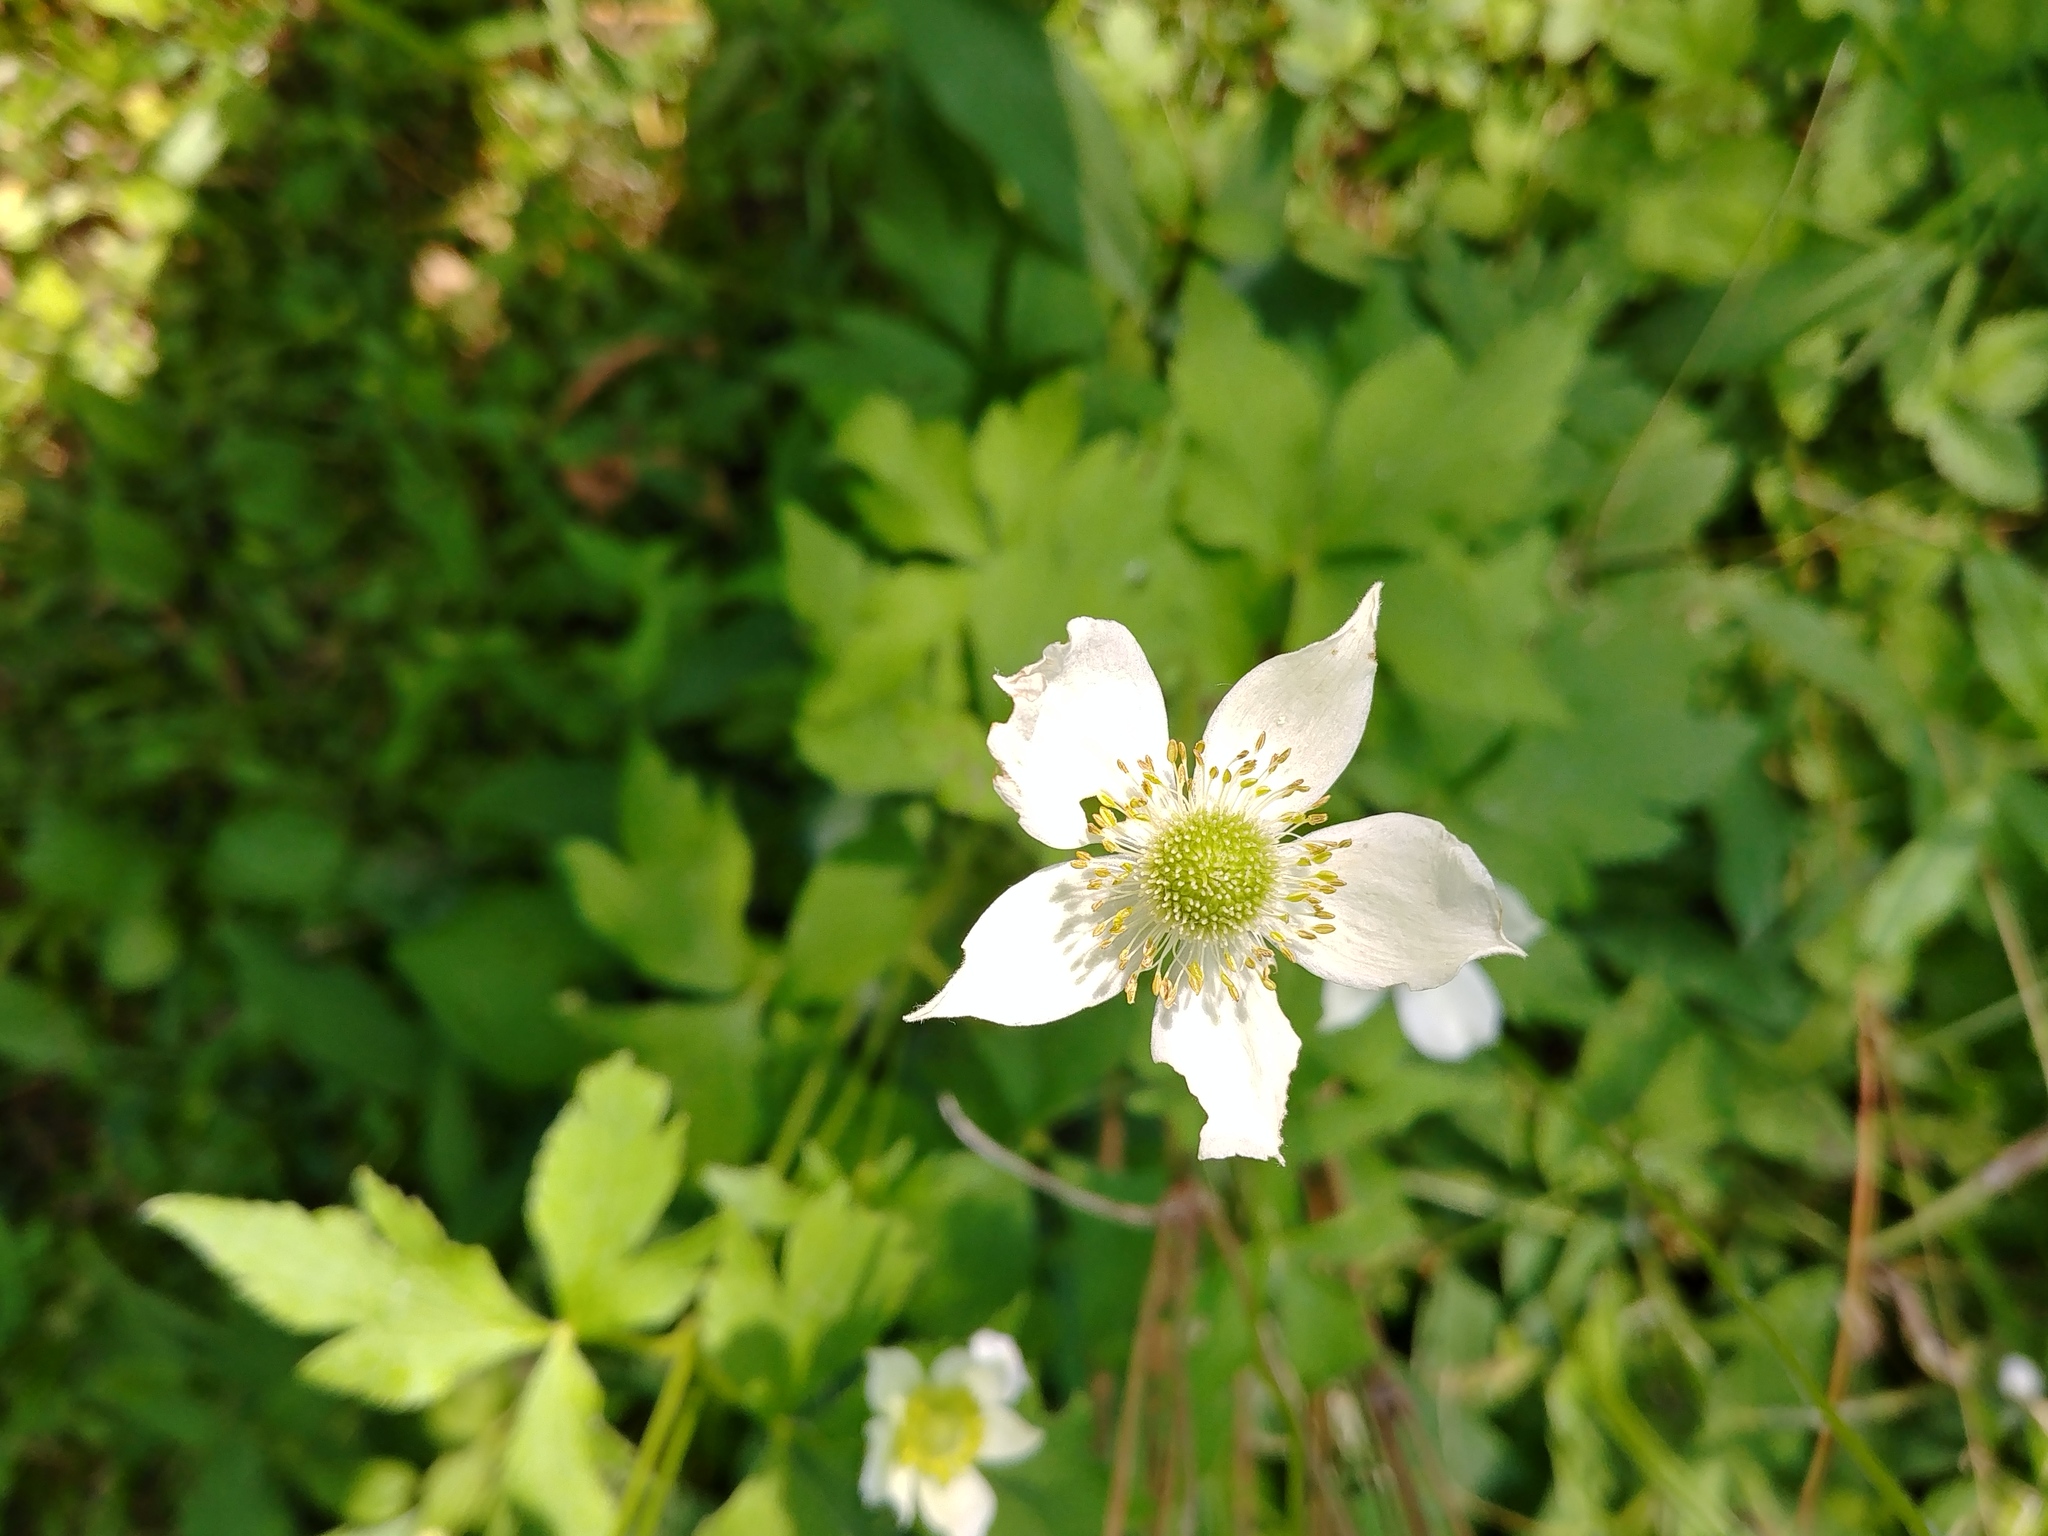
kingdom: Plantae
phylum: Tracheophyta
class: Magnoliopsida
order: Ranunculales
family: Ranunculaceae
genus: Anemone
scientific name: Anemone virginiana
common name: Tall anemone
